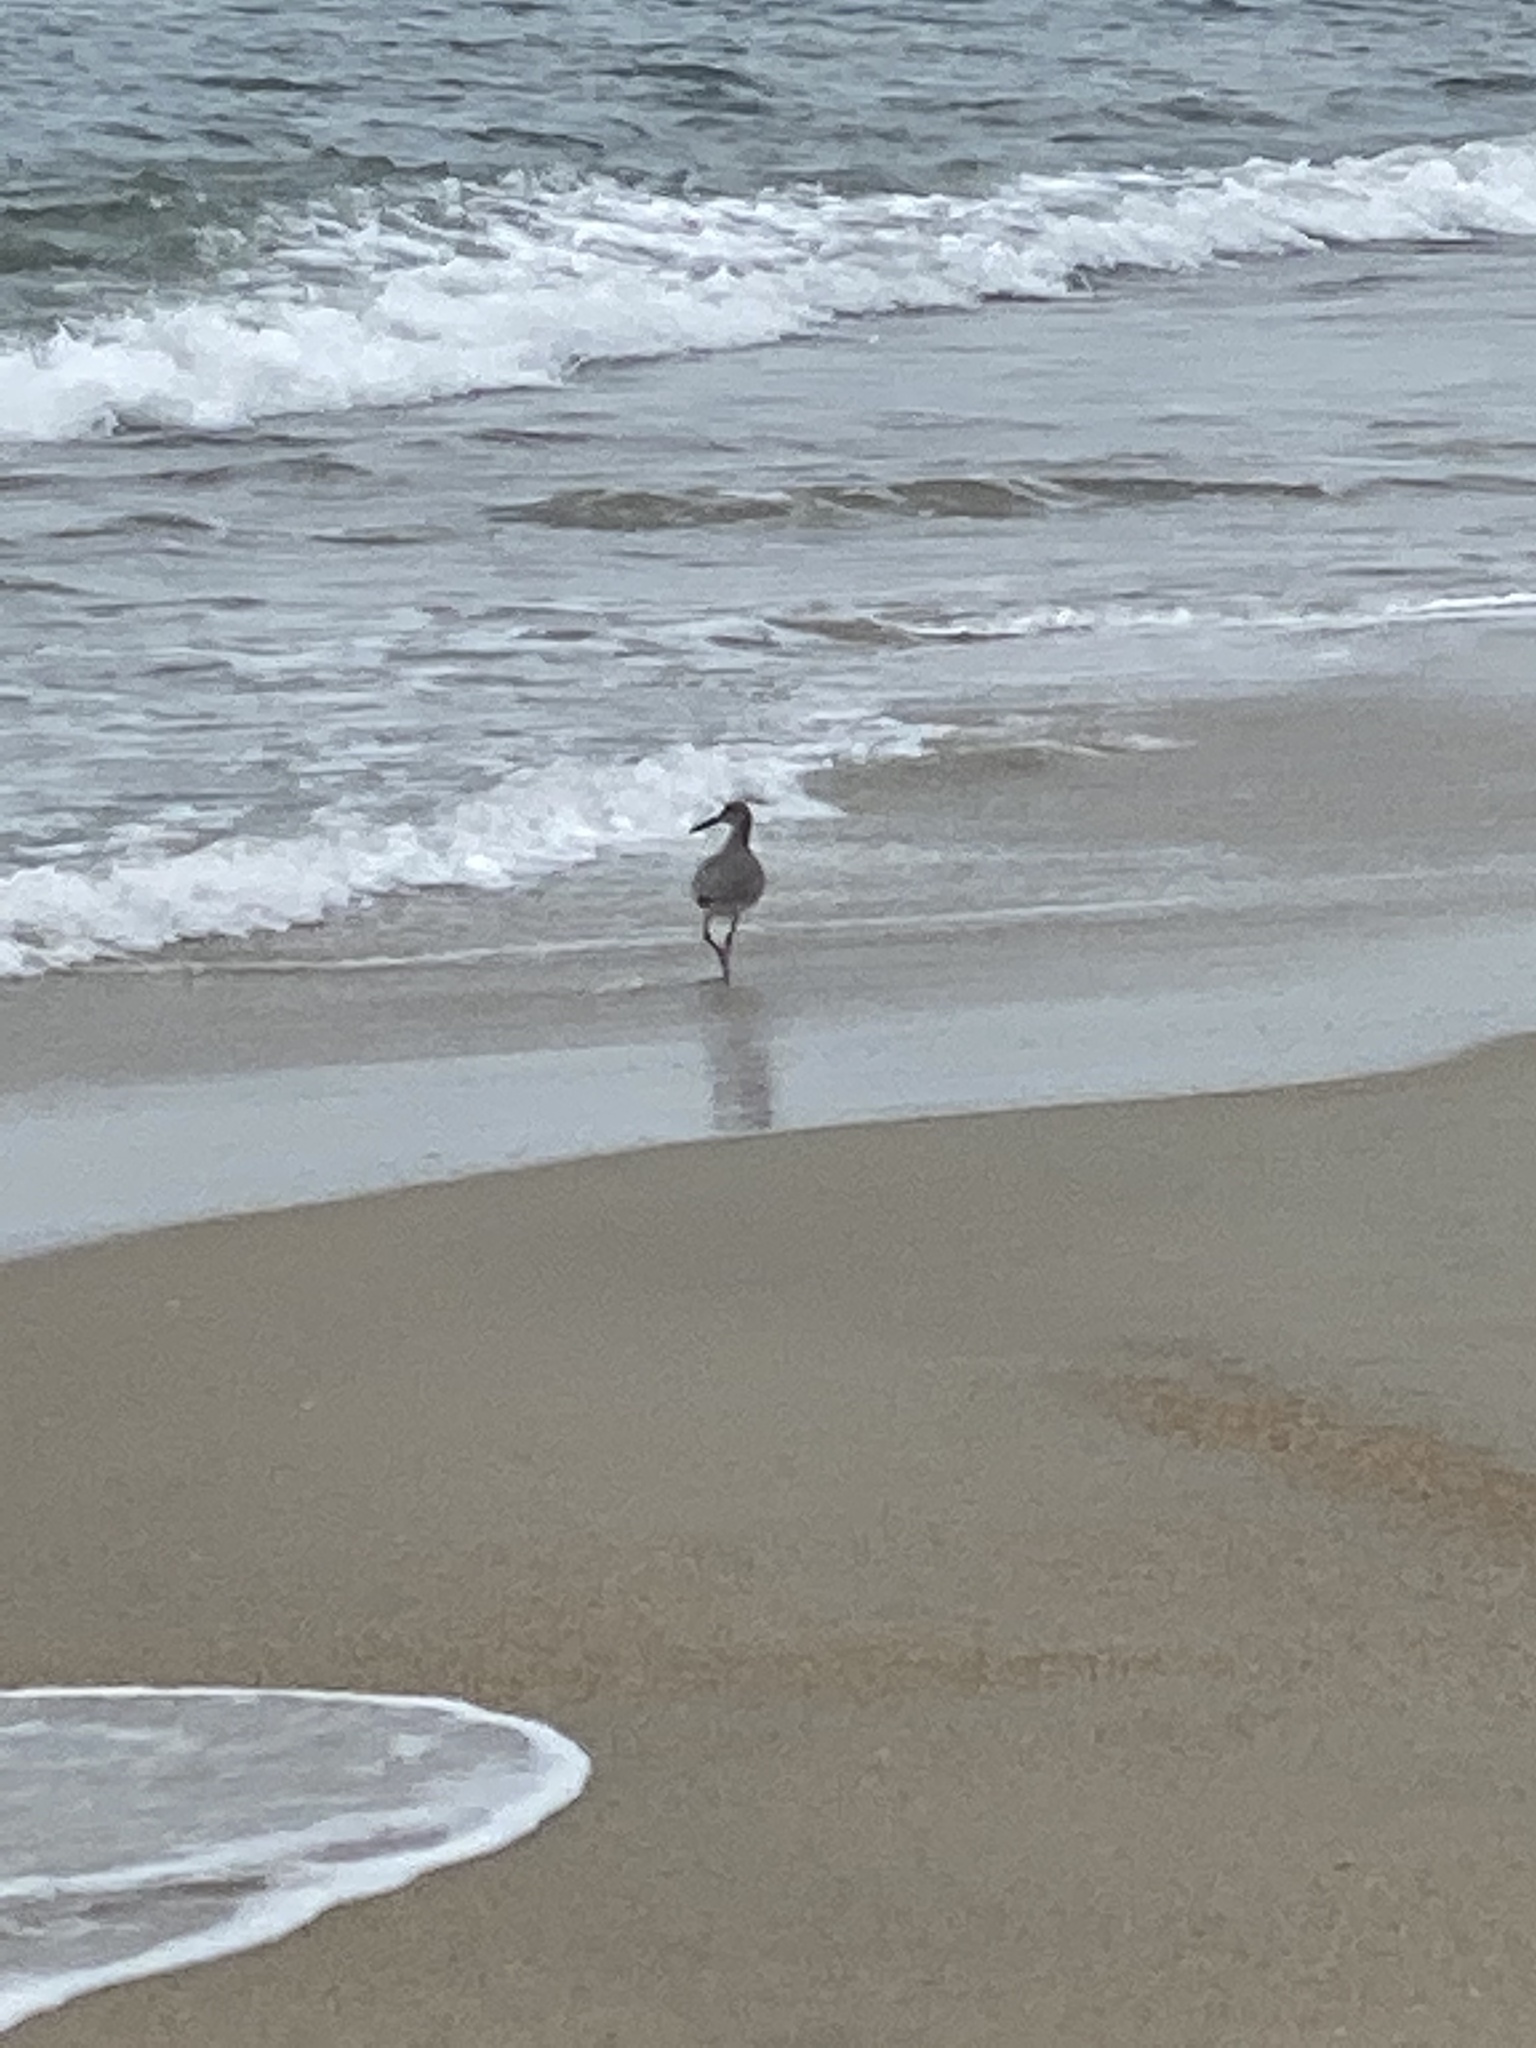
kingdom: Animalia
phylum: Chordata
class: Aves
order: Charadriiformes
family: Scolopacidae
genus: Tringa
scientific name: Tringa semipalmata
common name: Willet
